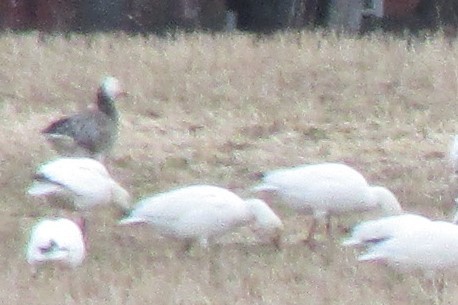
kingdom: Animalia
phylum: Chordata
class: Aves
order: Anseriformes
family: Anatidae
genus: Anser
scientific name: Anser caerulescens
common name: Snow goose
